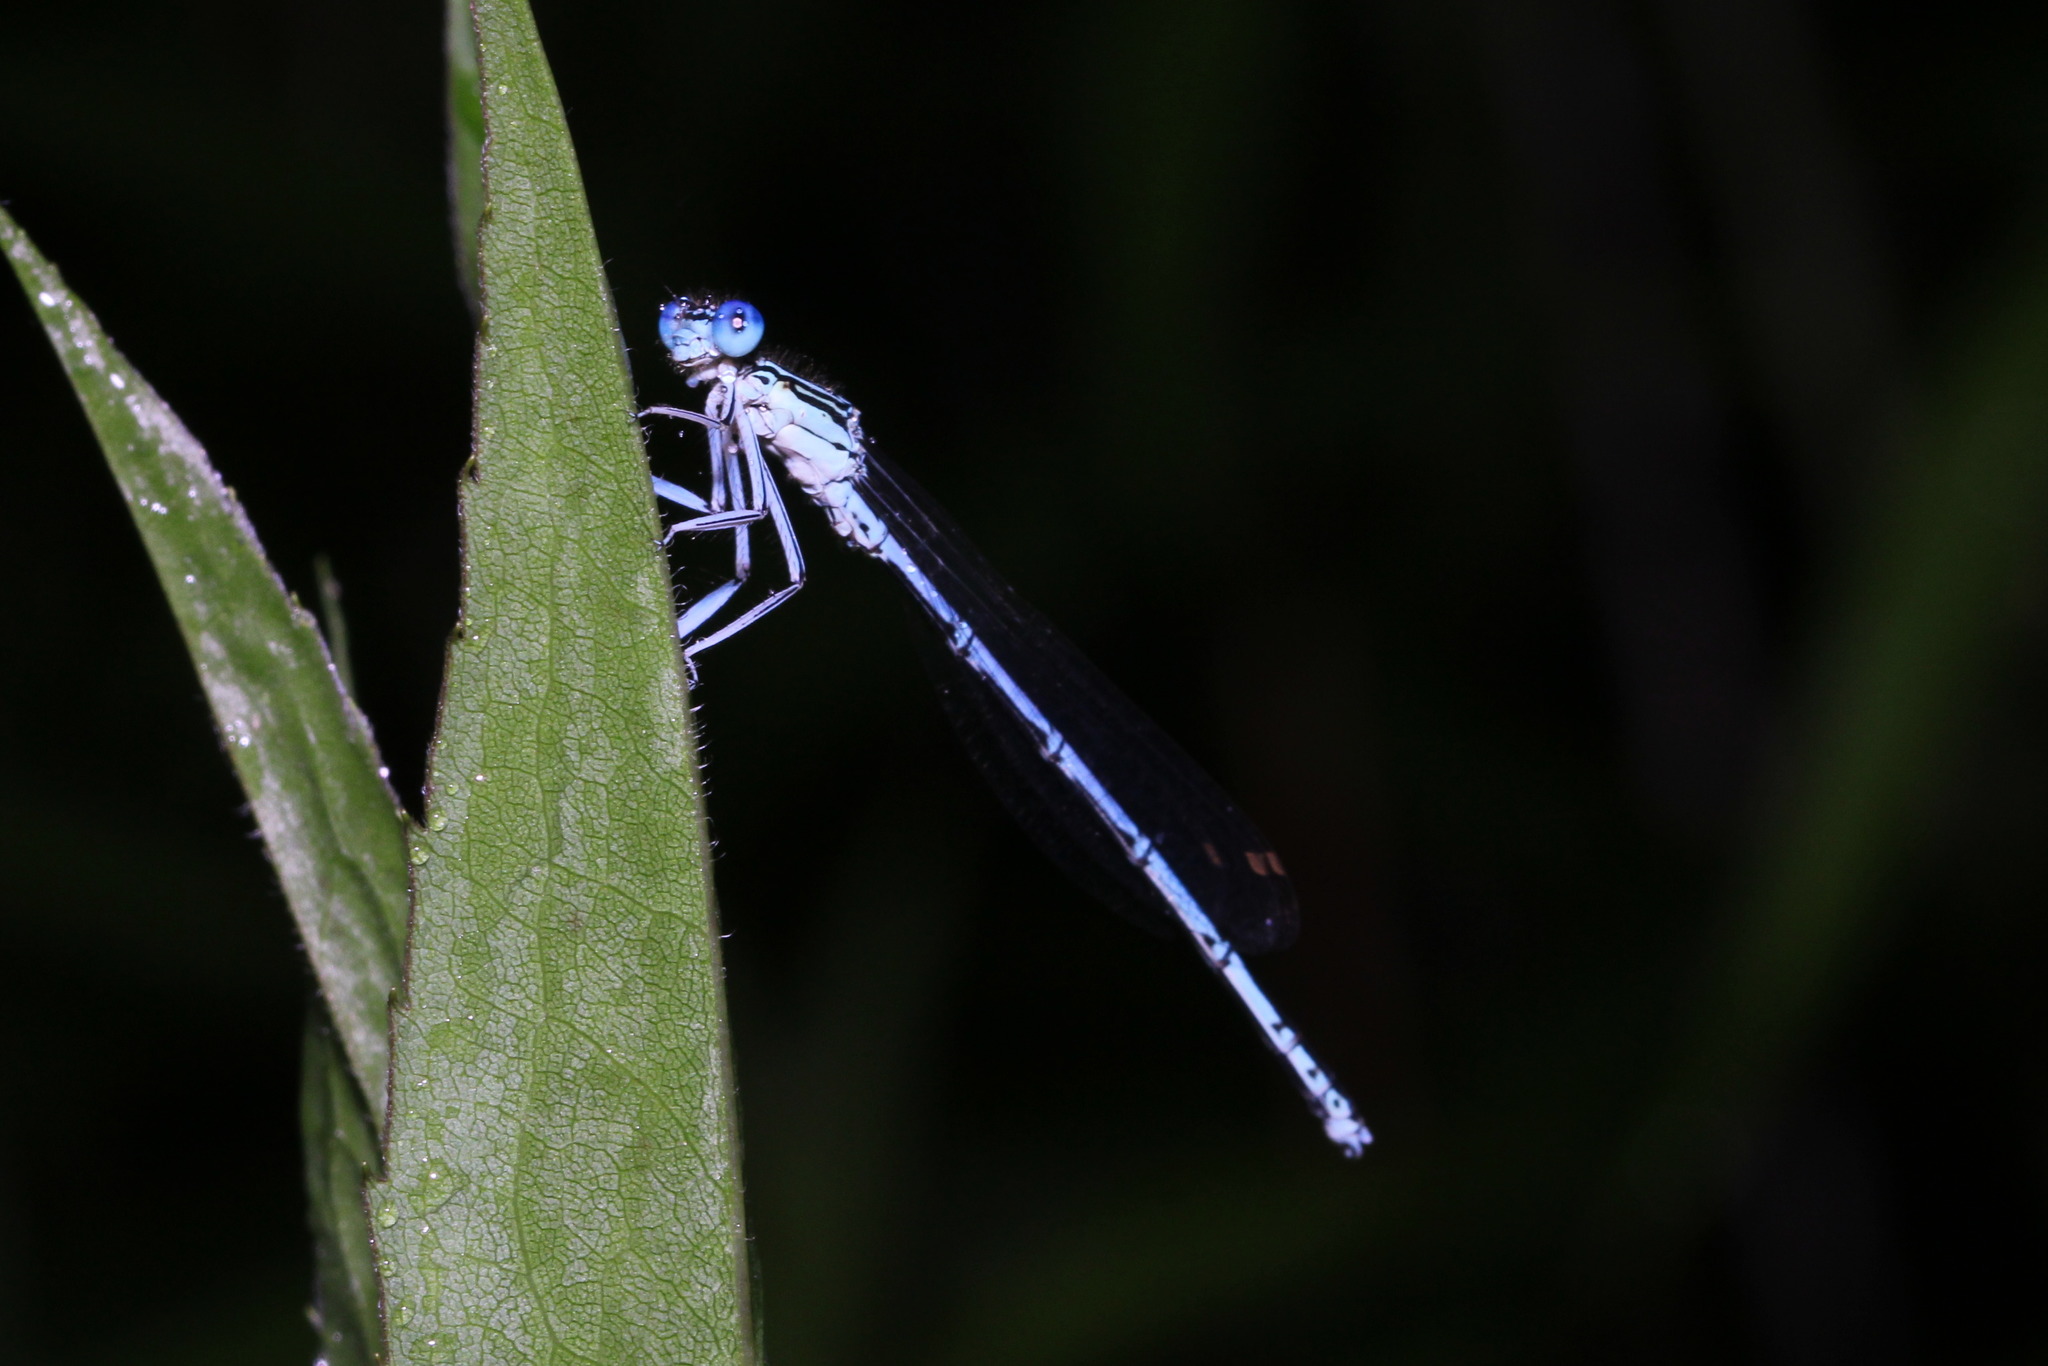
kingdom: Animalia
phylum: Arthropoda
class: Insecta
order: Odonata
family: Platycnemididae
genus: Platycnemis
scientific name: Platycnemis pennipes
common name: White-legged damselfly
